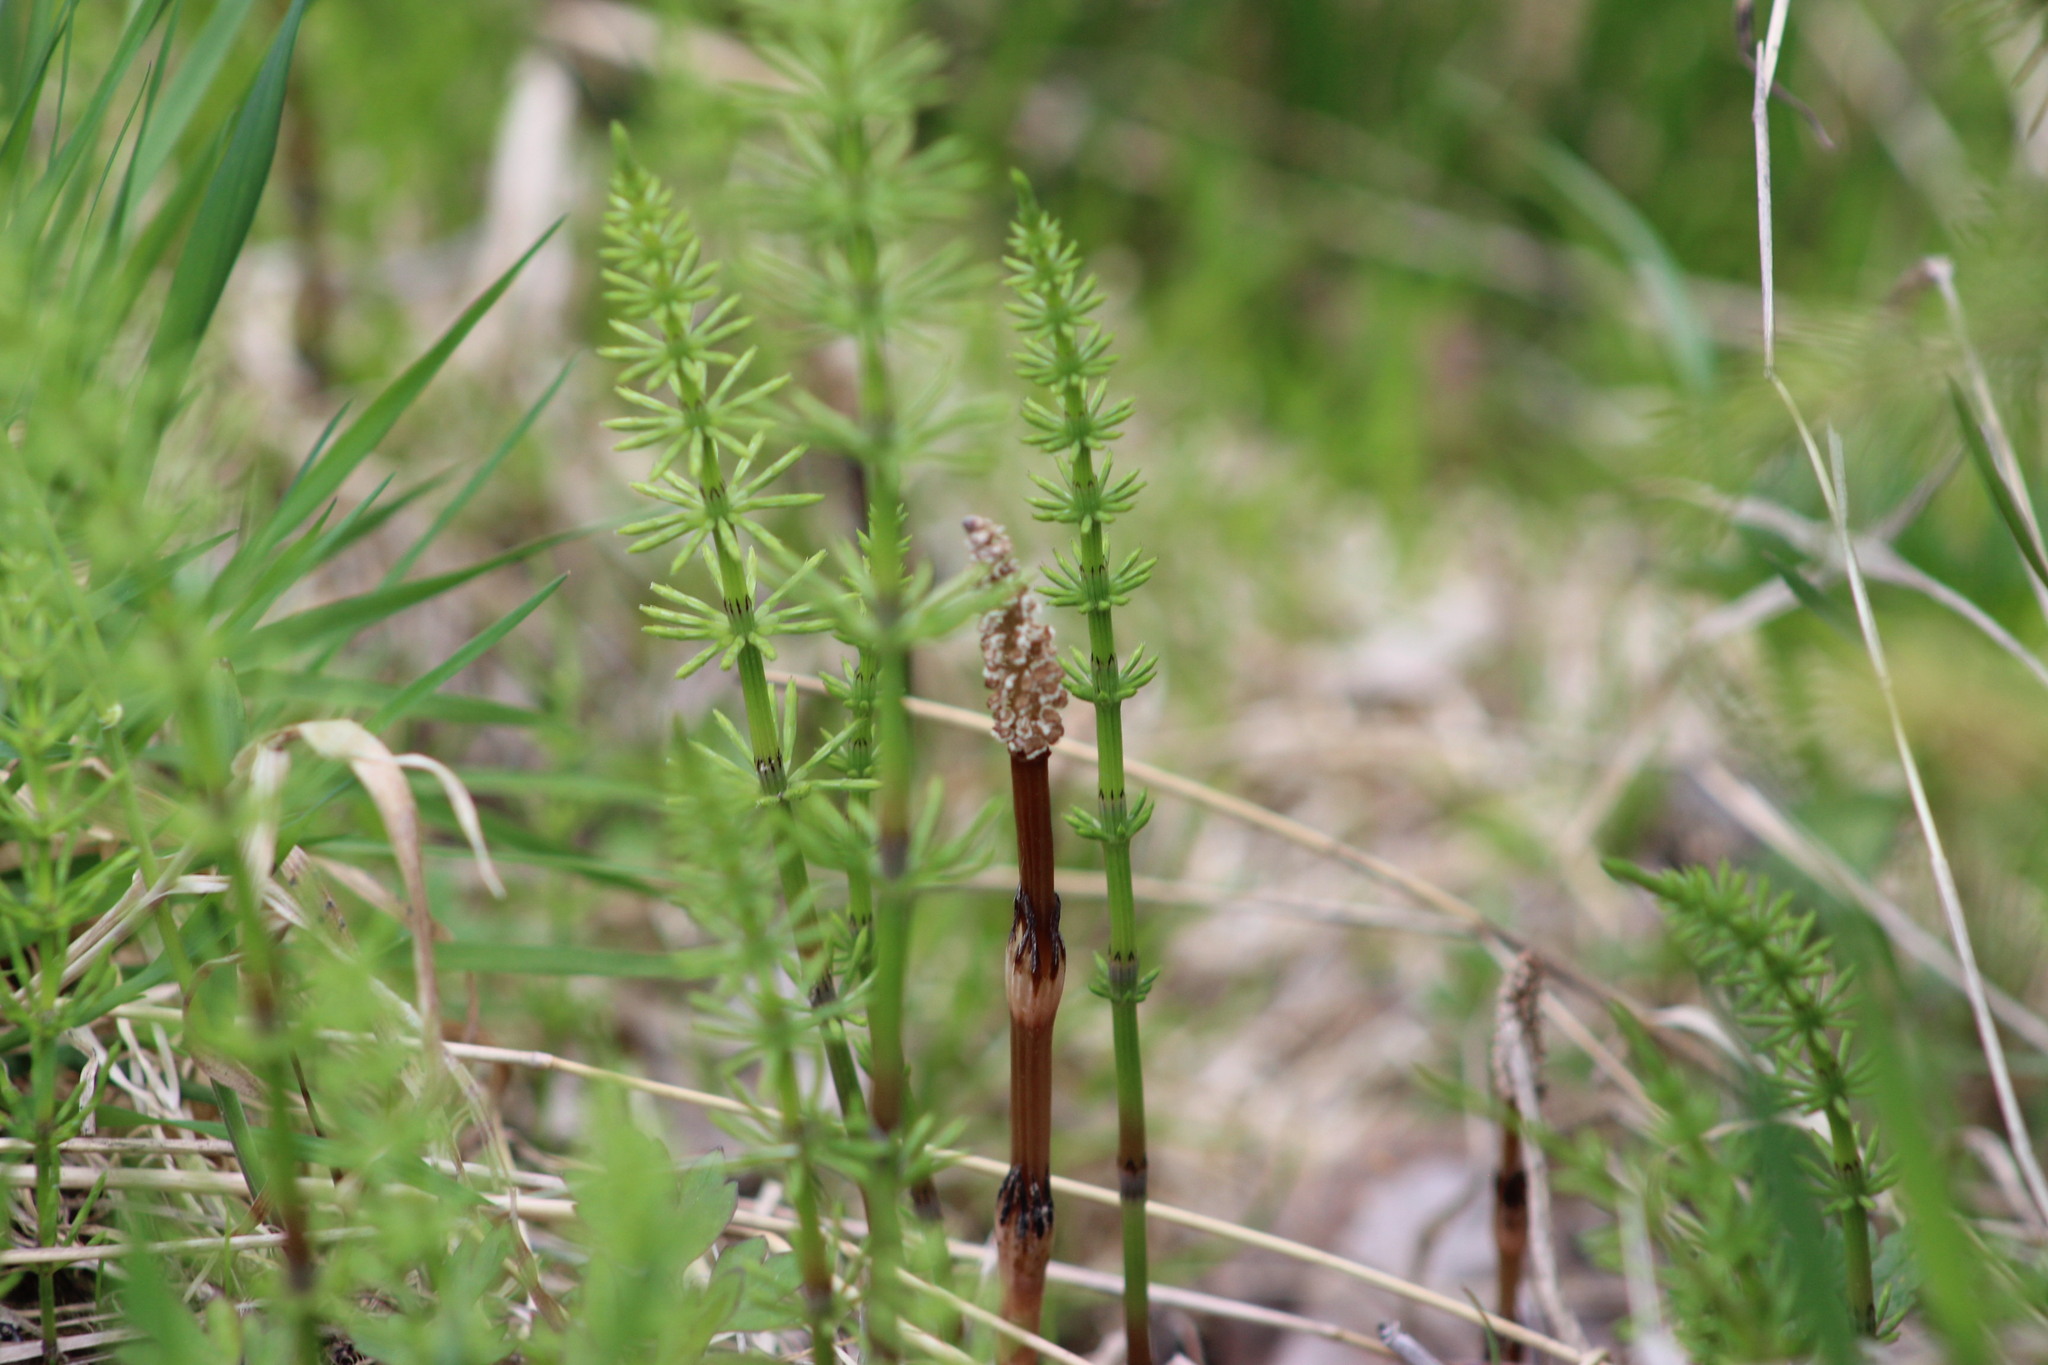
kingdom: Plantae
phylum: Tracheophyta
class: Polypodiopsida
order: Equisetales
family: Equisetaceae
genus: Equisetum
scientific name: Equisetum arvense
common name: Field horsetail
